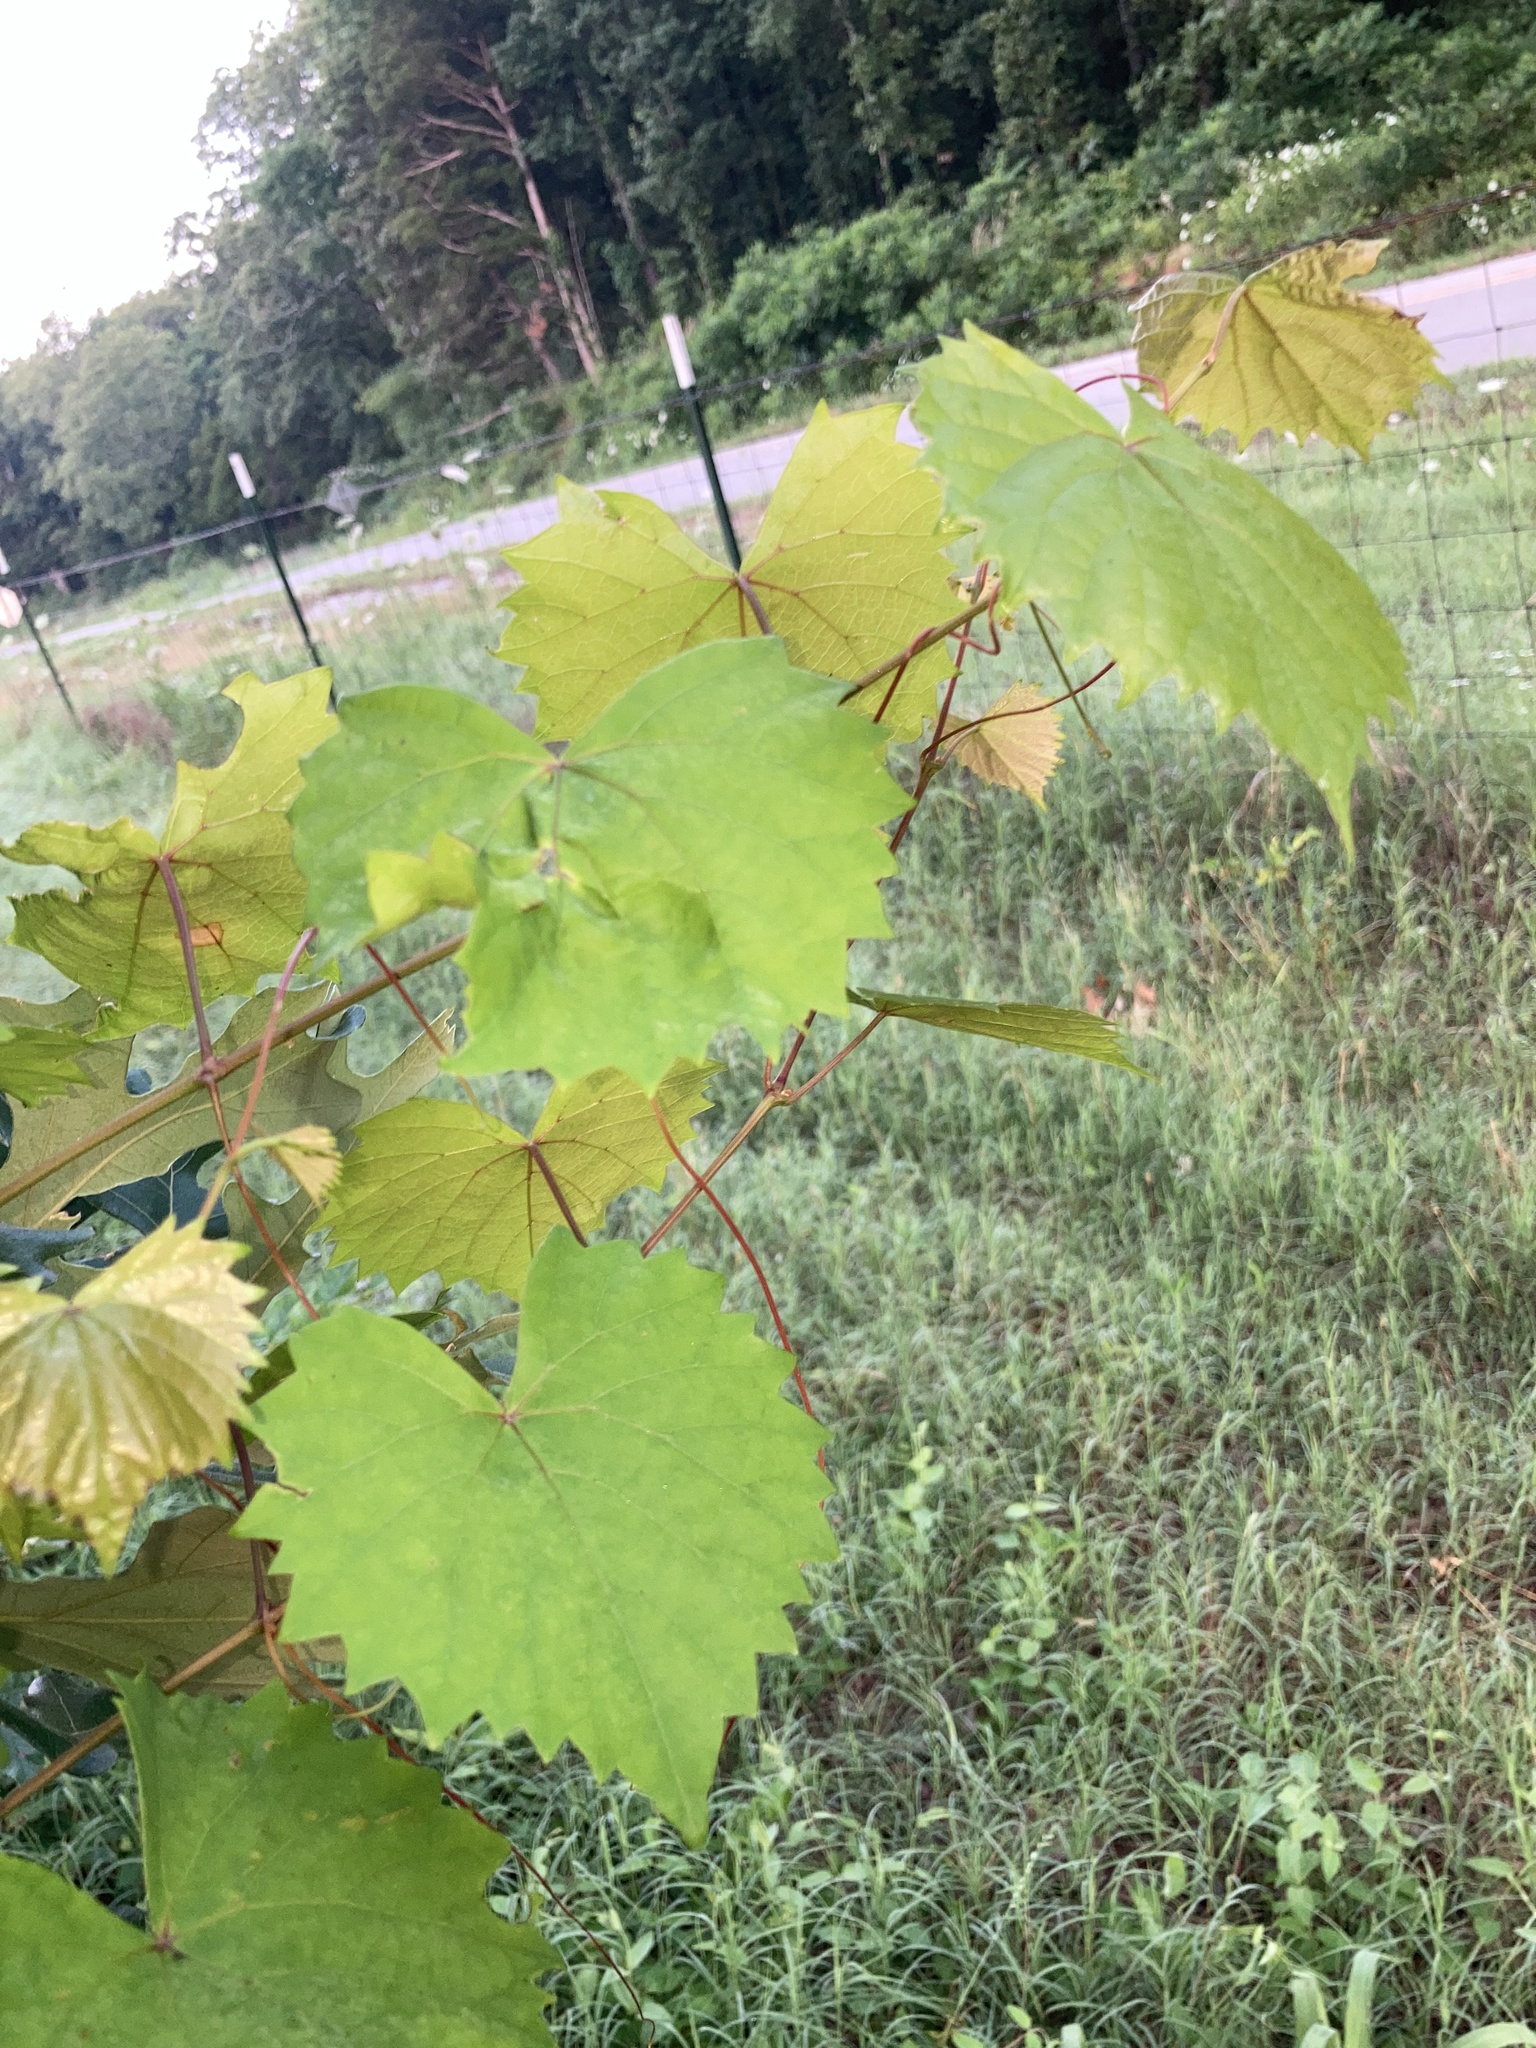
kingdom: Plantae
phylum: Tracheophyta
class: Magnoliopsida
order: Vitales
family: Vitaceae
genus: Vitis
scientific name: Vitis rotundifolia
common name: Muscadine grape
